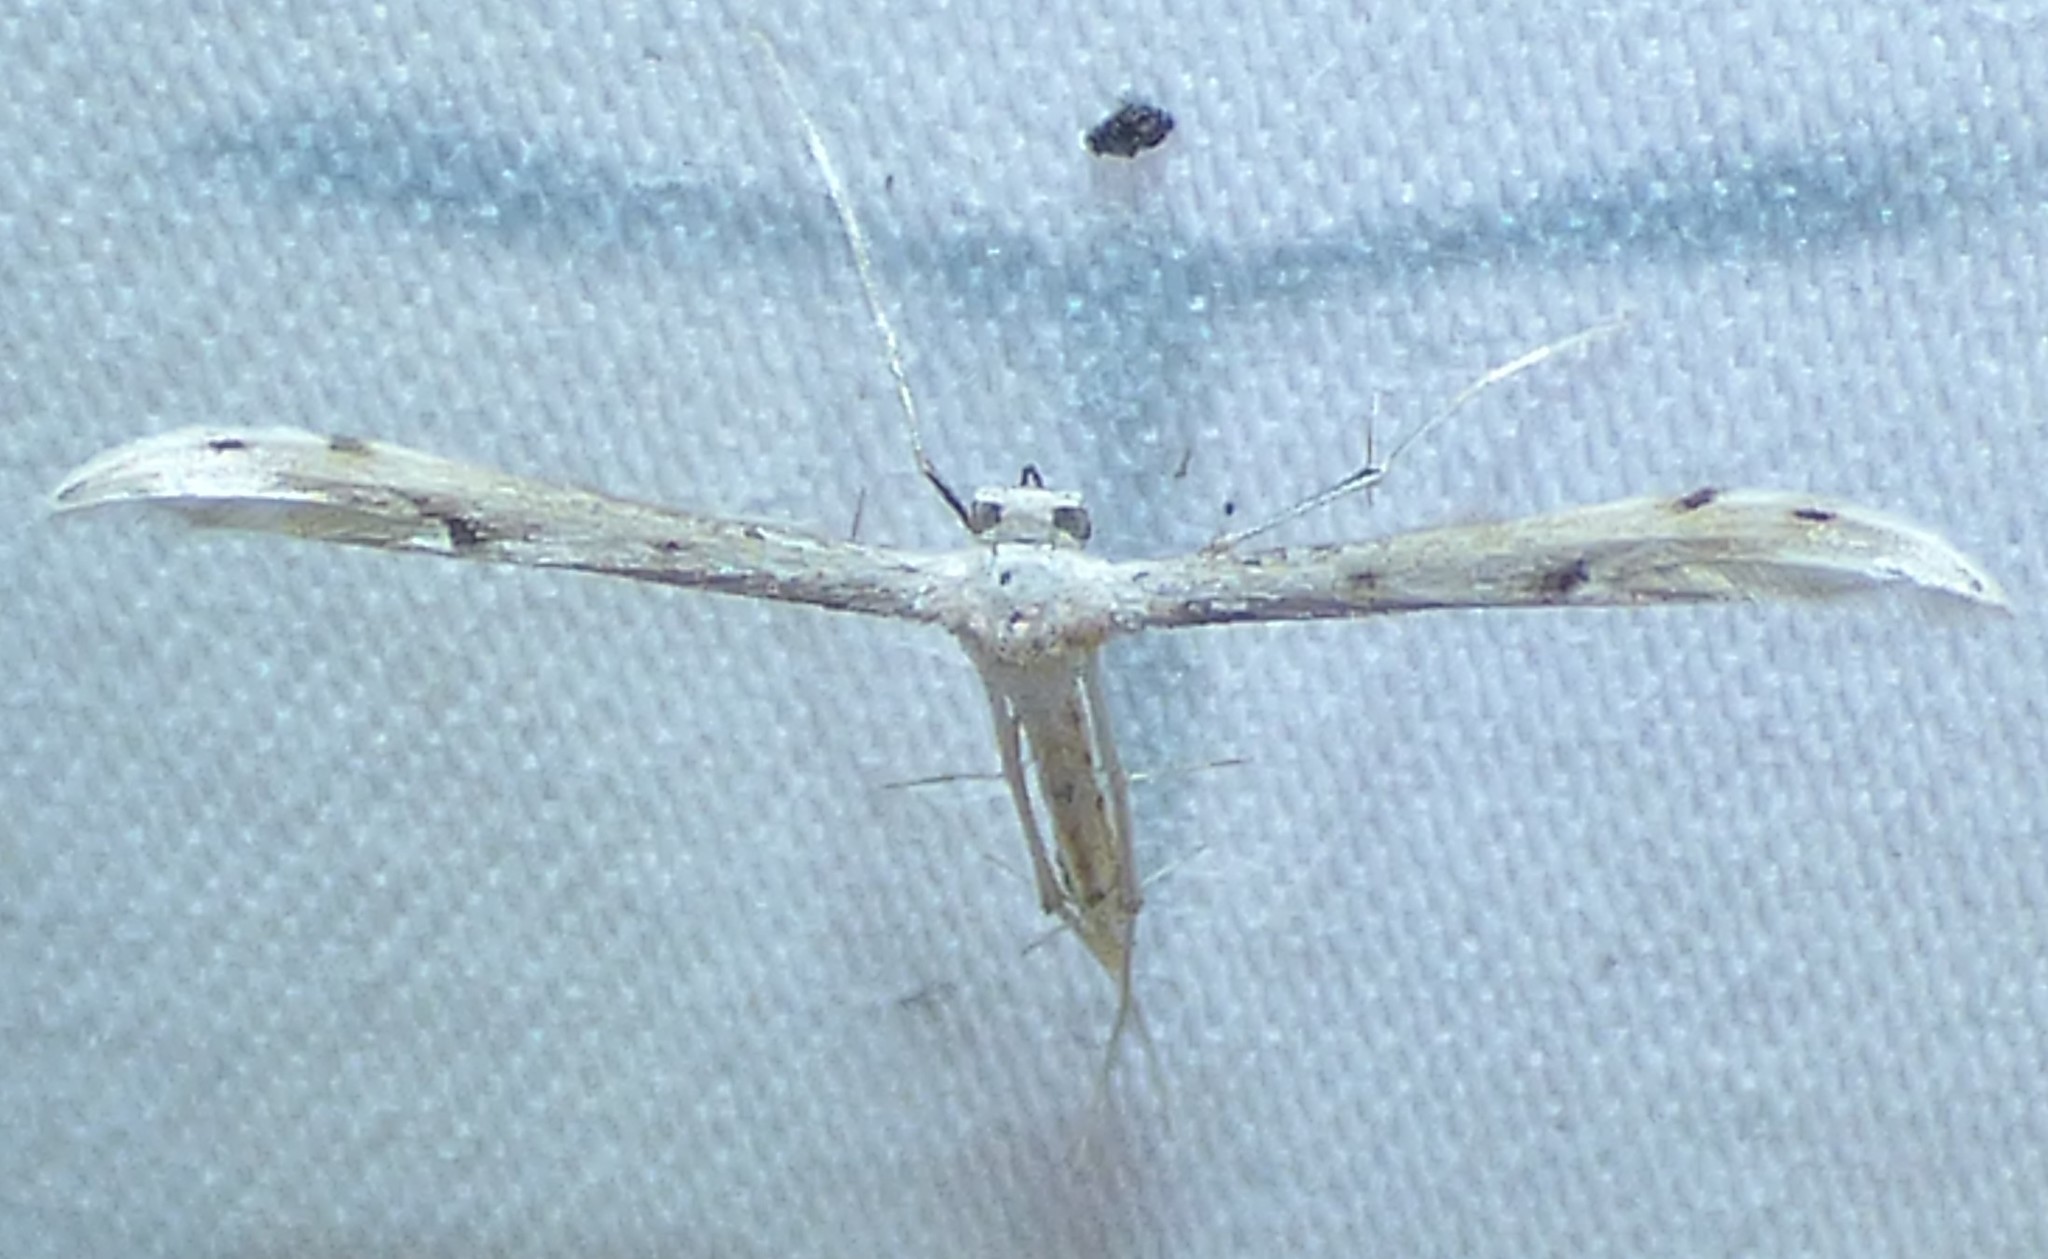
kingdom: Animalia
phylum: Arthropoda
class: Insecta
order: Lepidoptera
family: Pterophoridae
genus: Pselnophorus
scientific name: Pselnophorus belfragei
